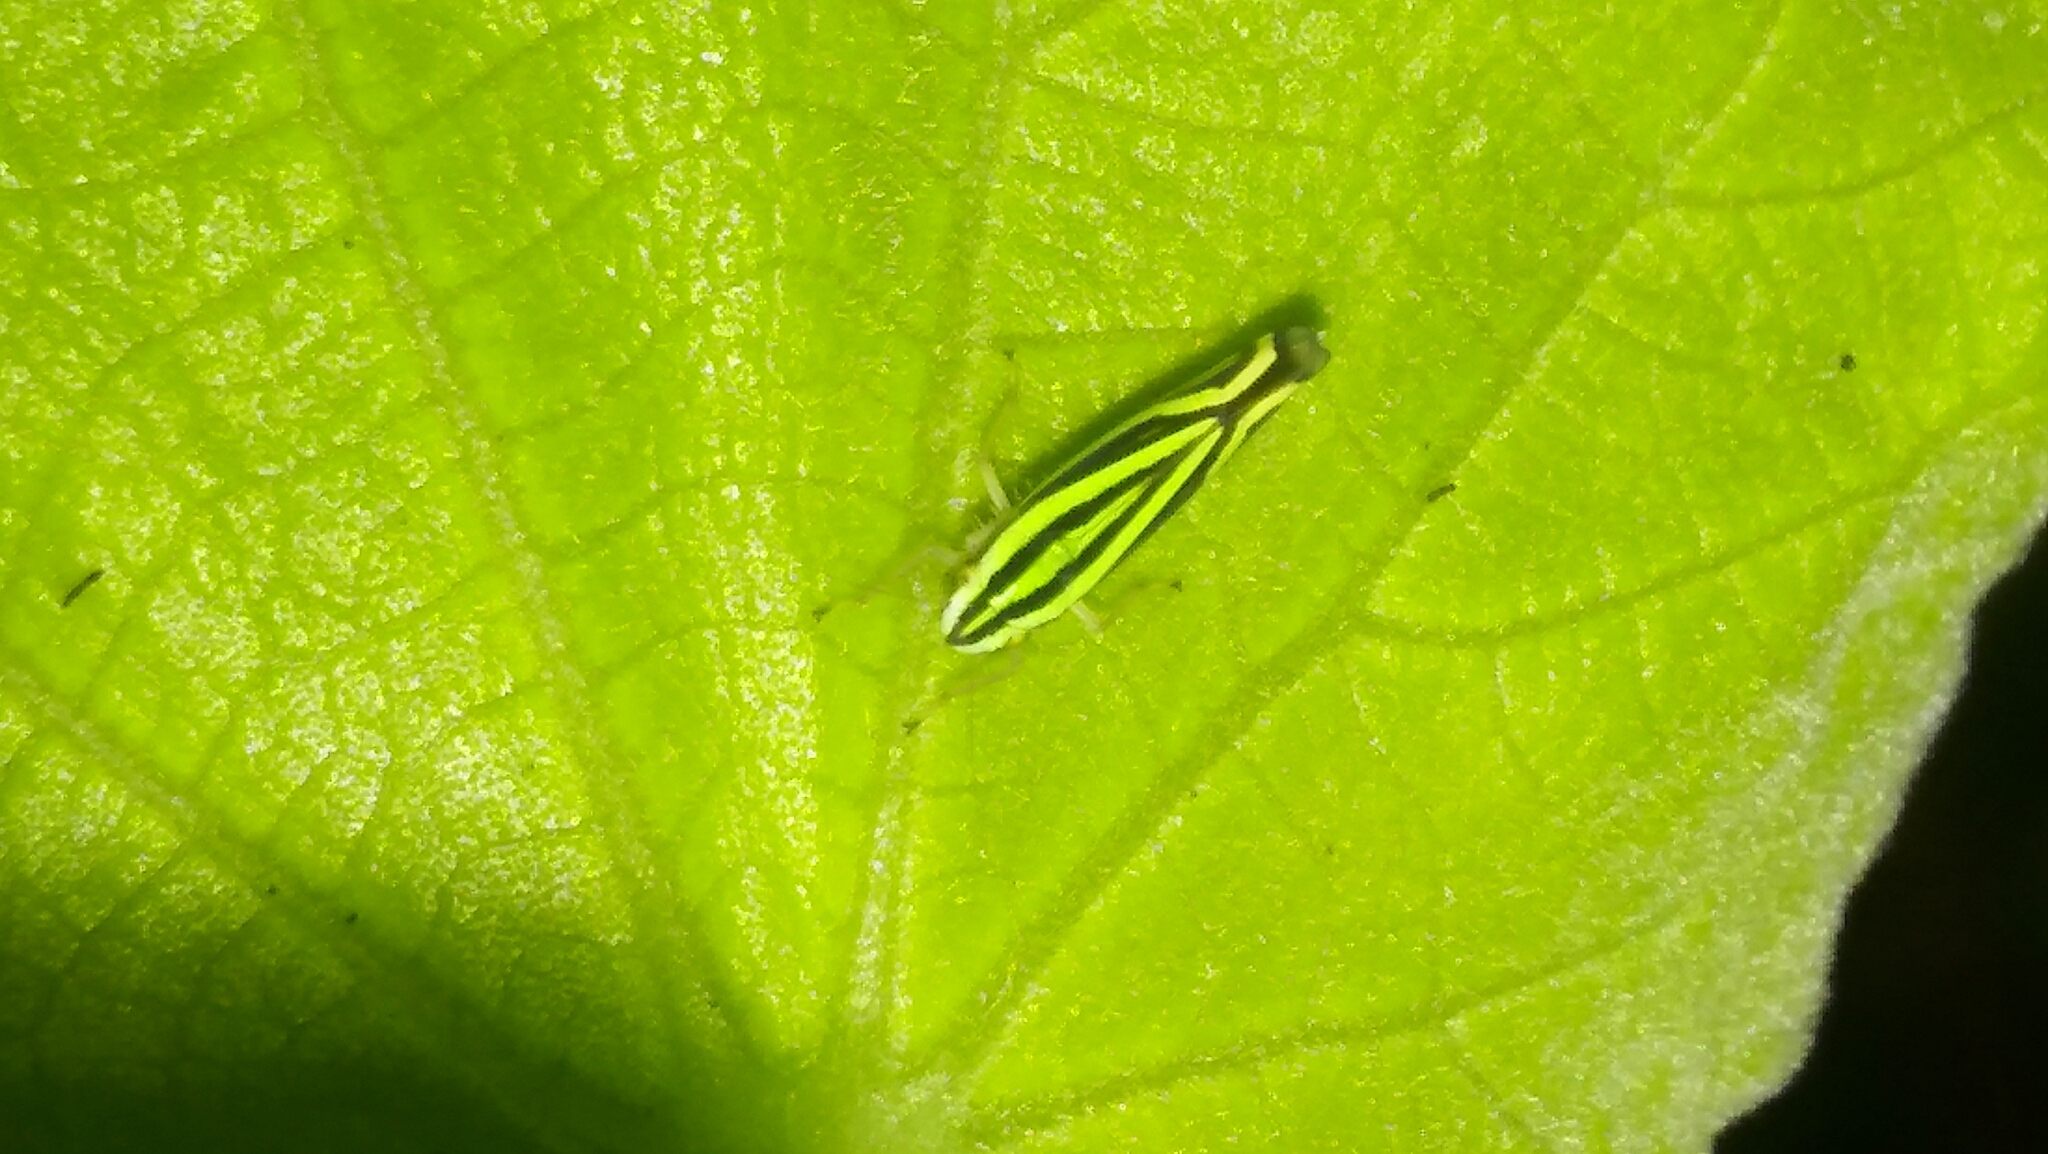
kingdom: Animalia
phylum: Arthropoda
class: Insecta
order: Hemiptera
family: Cicadellidae
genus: Sibovia
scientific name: Sibovia sagata
